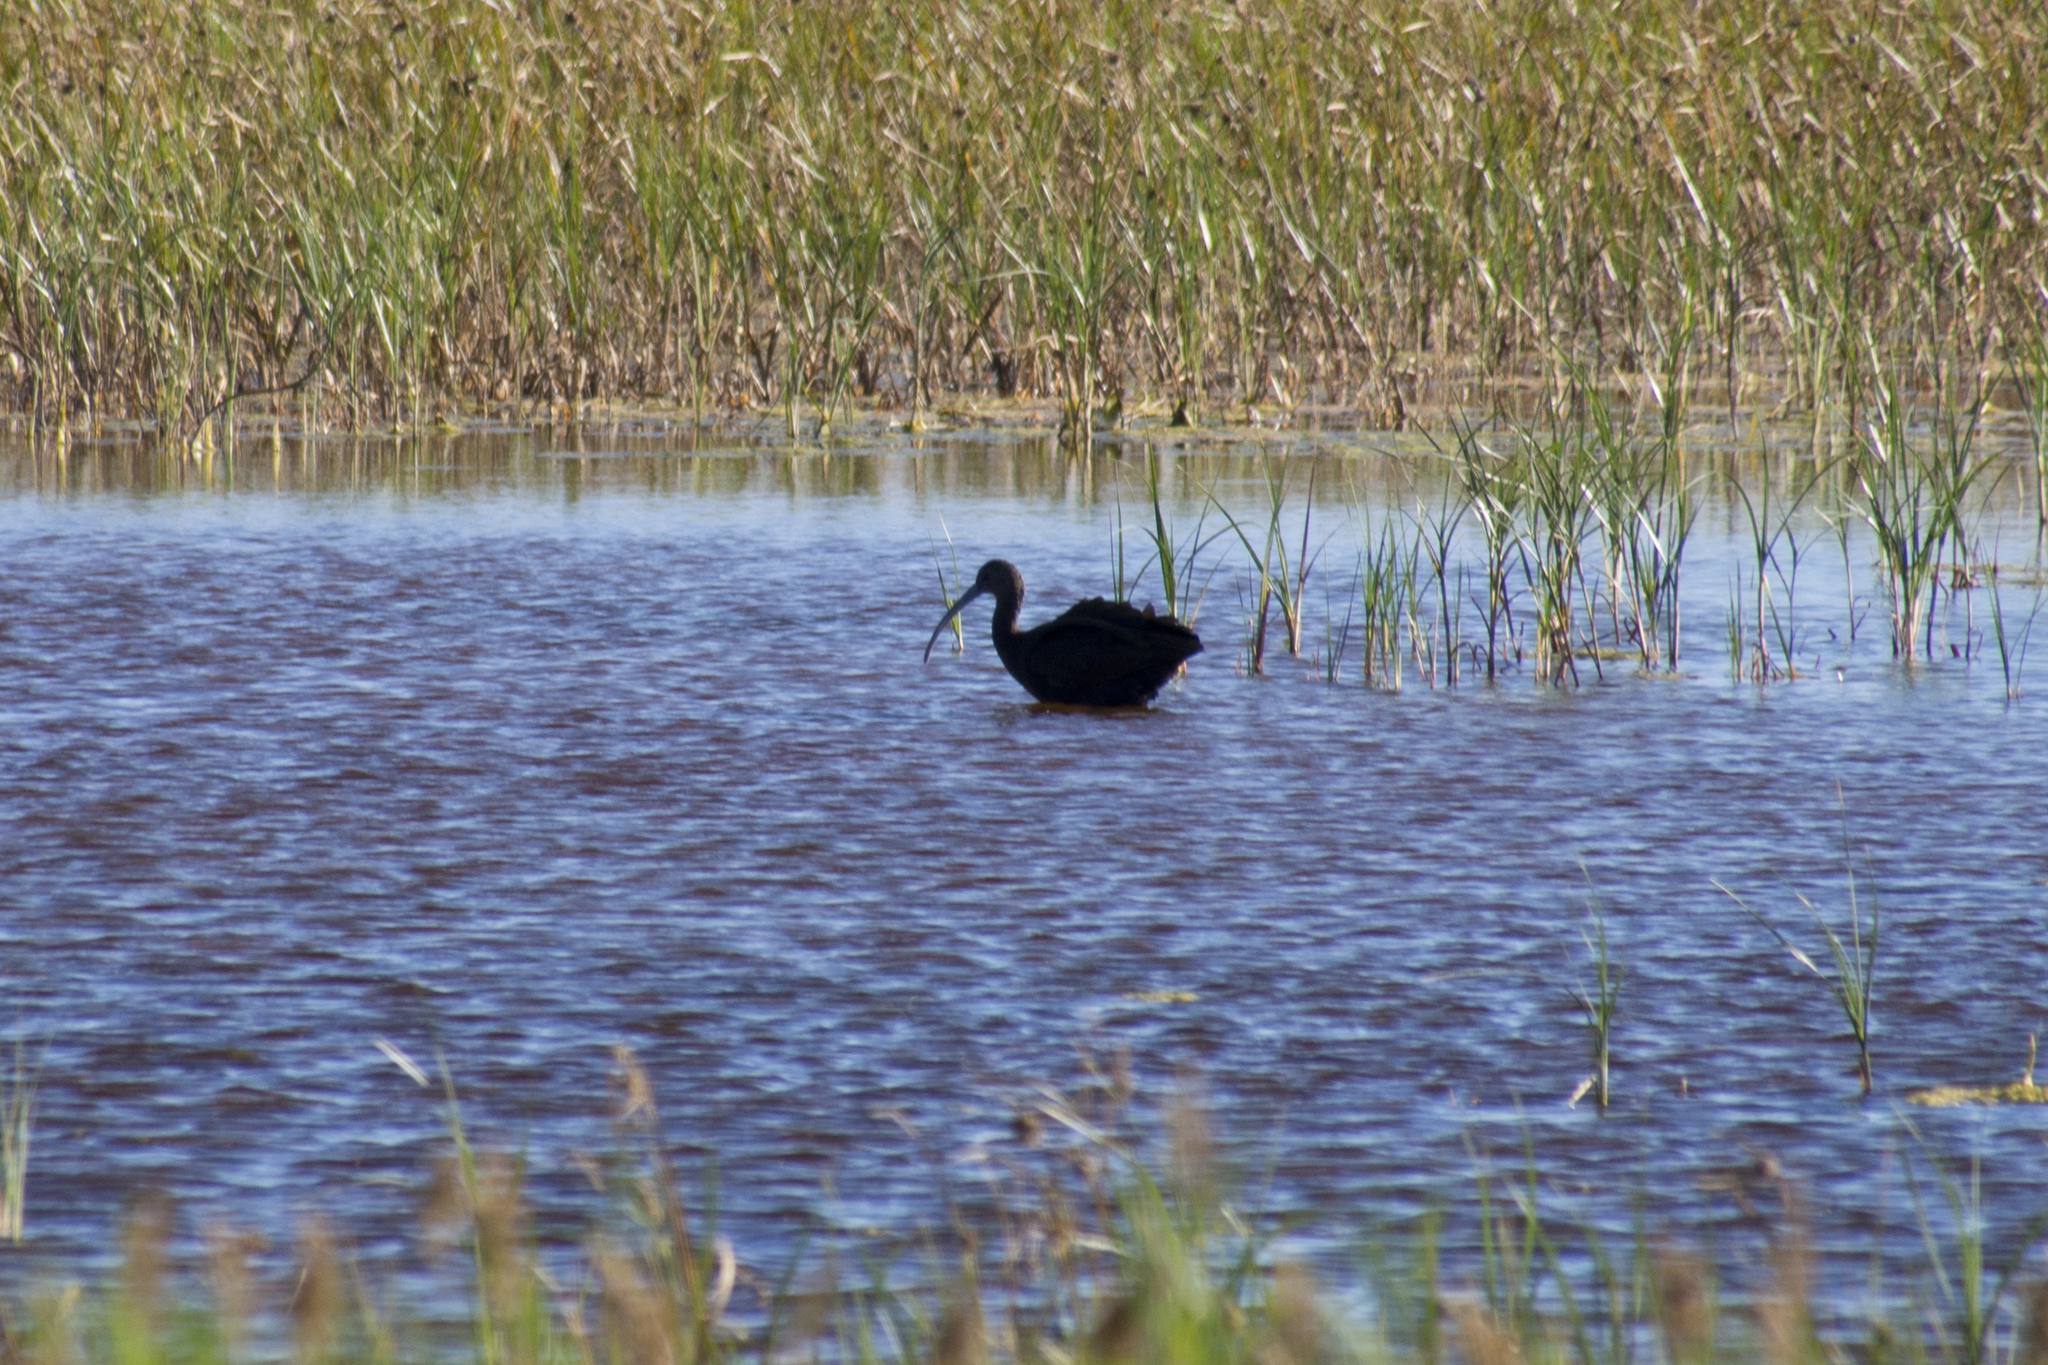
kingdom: Animalia
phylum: Chordata
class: Aves
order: Pelecaniformes
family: Threskiornithidae
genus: Plegadis
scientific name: Plegadis chihi
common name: White-faced ibis
